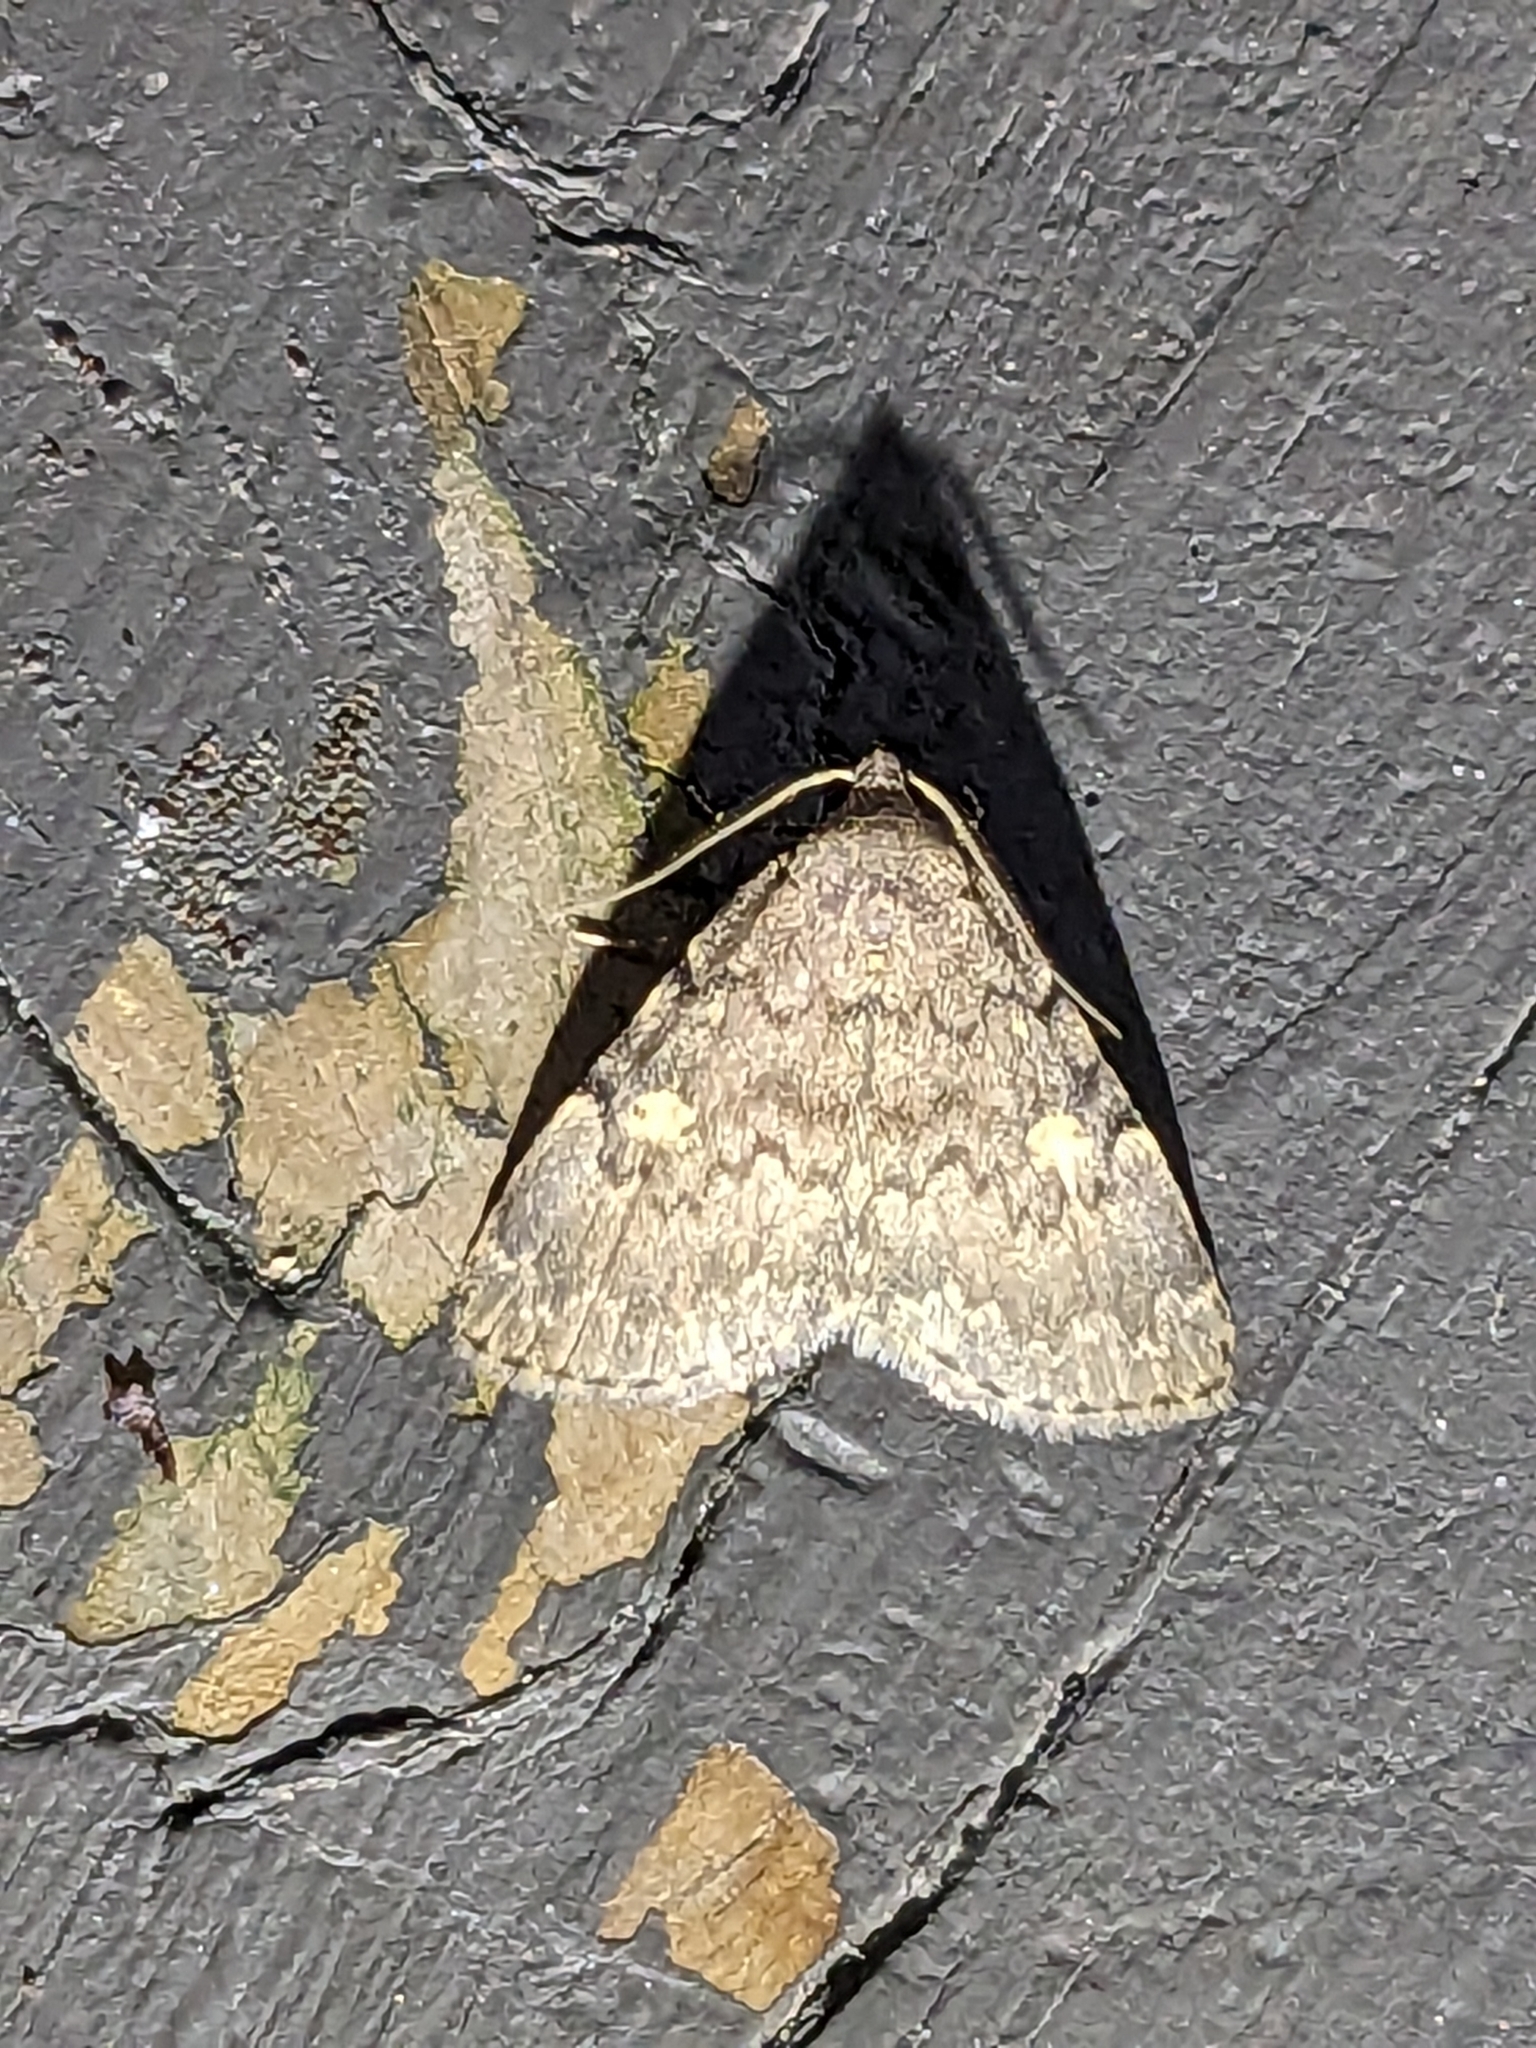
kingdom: Animalia
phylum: Arthropoda
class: Insecta
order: Lepidoptera
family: Erebidae
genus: Idia
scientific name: Idia aemula
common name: Common idia moth
